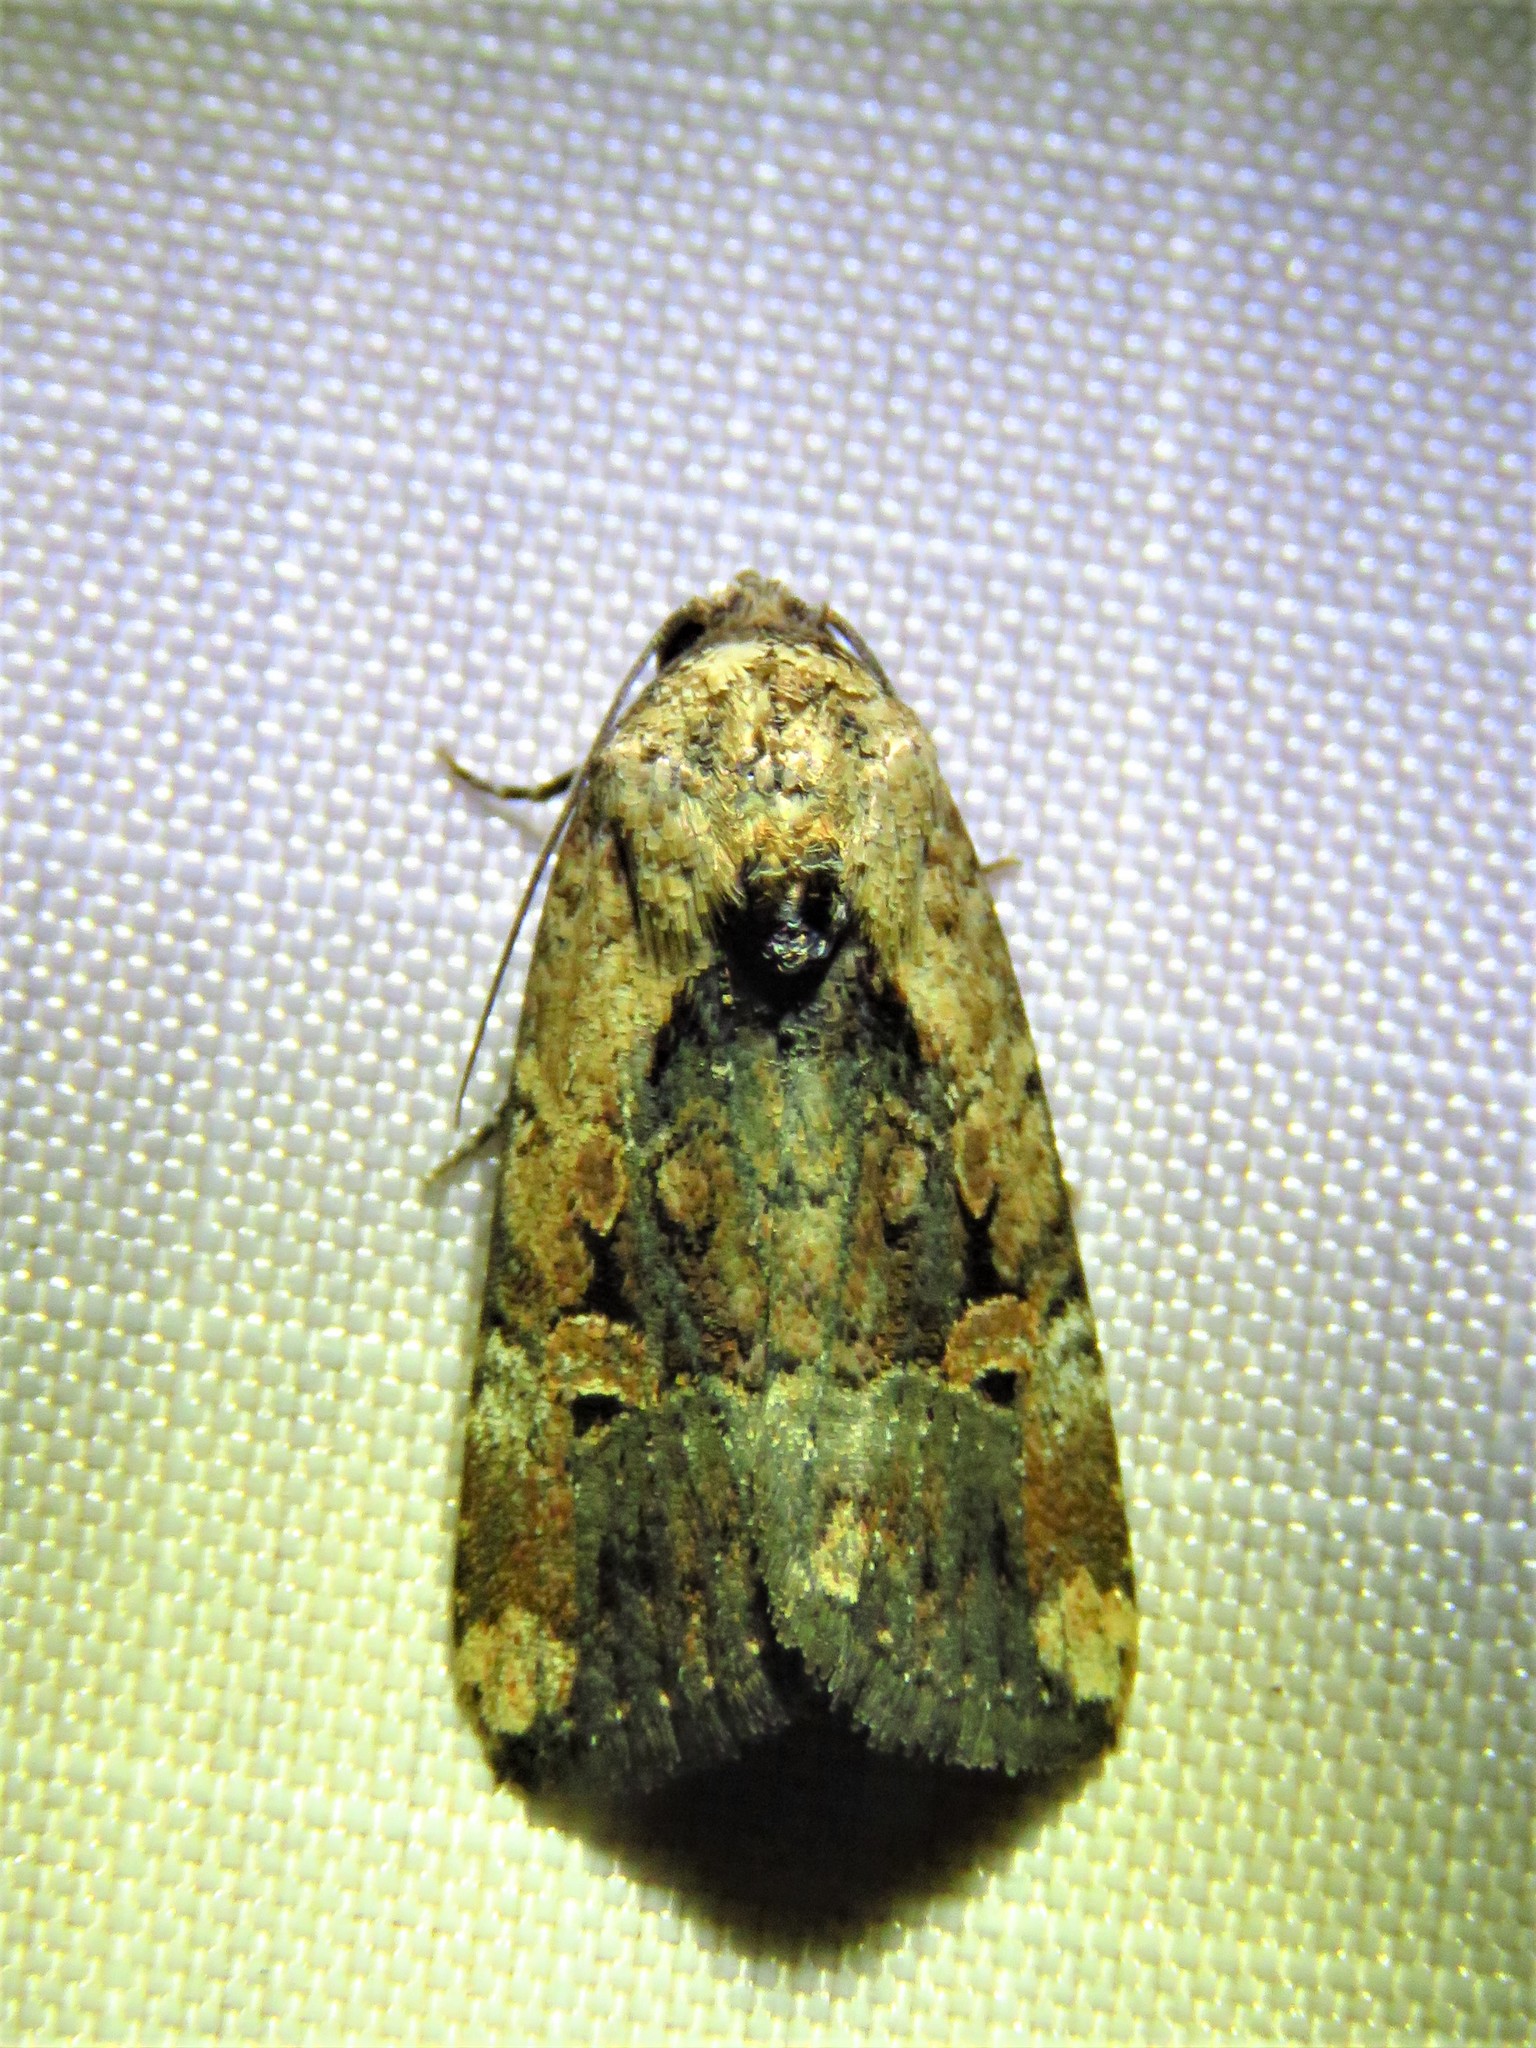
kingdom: Animalia
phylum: Arthropoda
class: Insecta
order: Lepidoptera
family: Noctuidae
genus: Elaphria
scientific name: Elaphria chalcedonia
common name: Chalcedony midget
